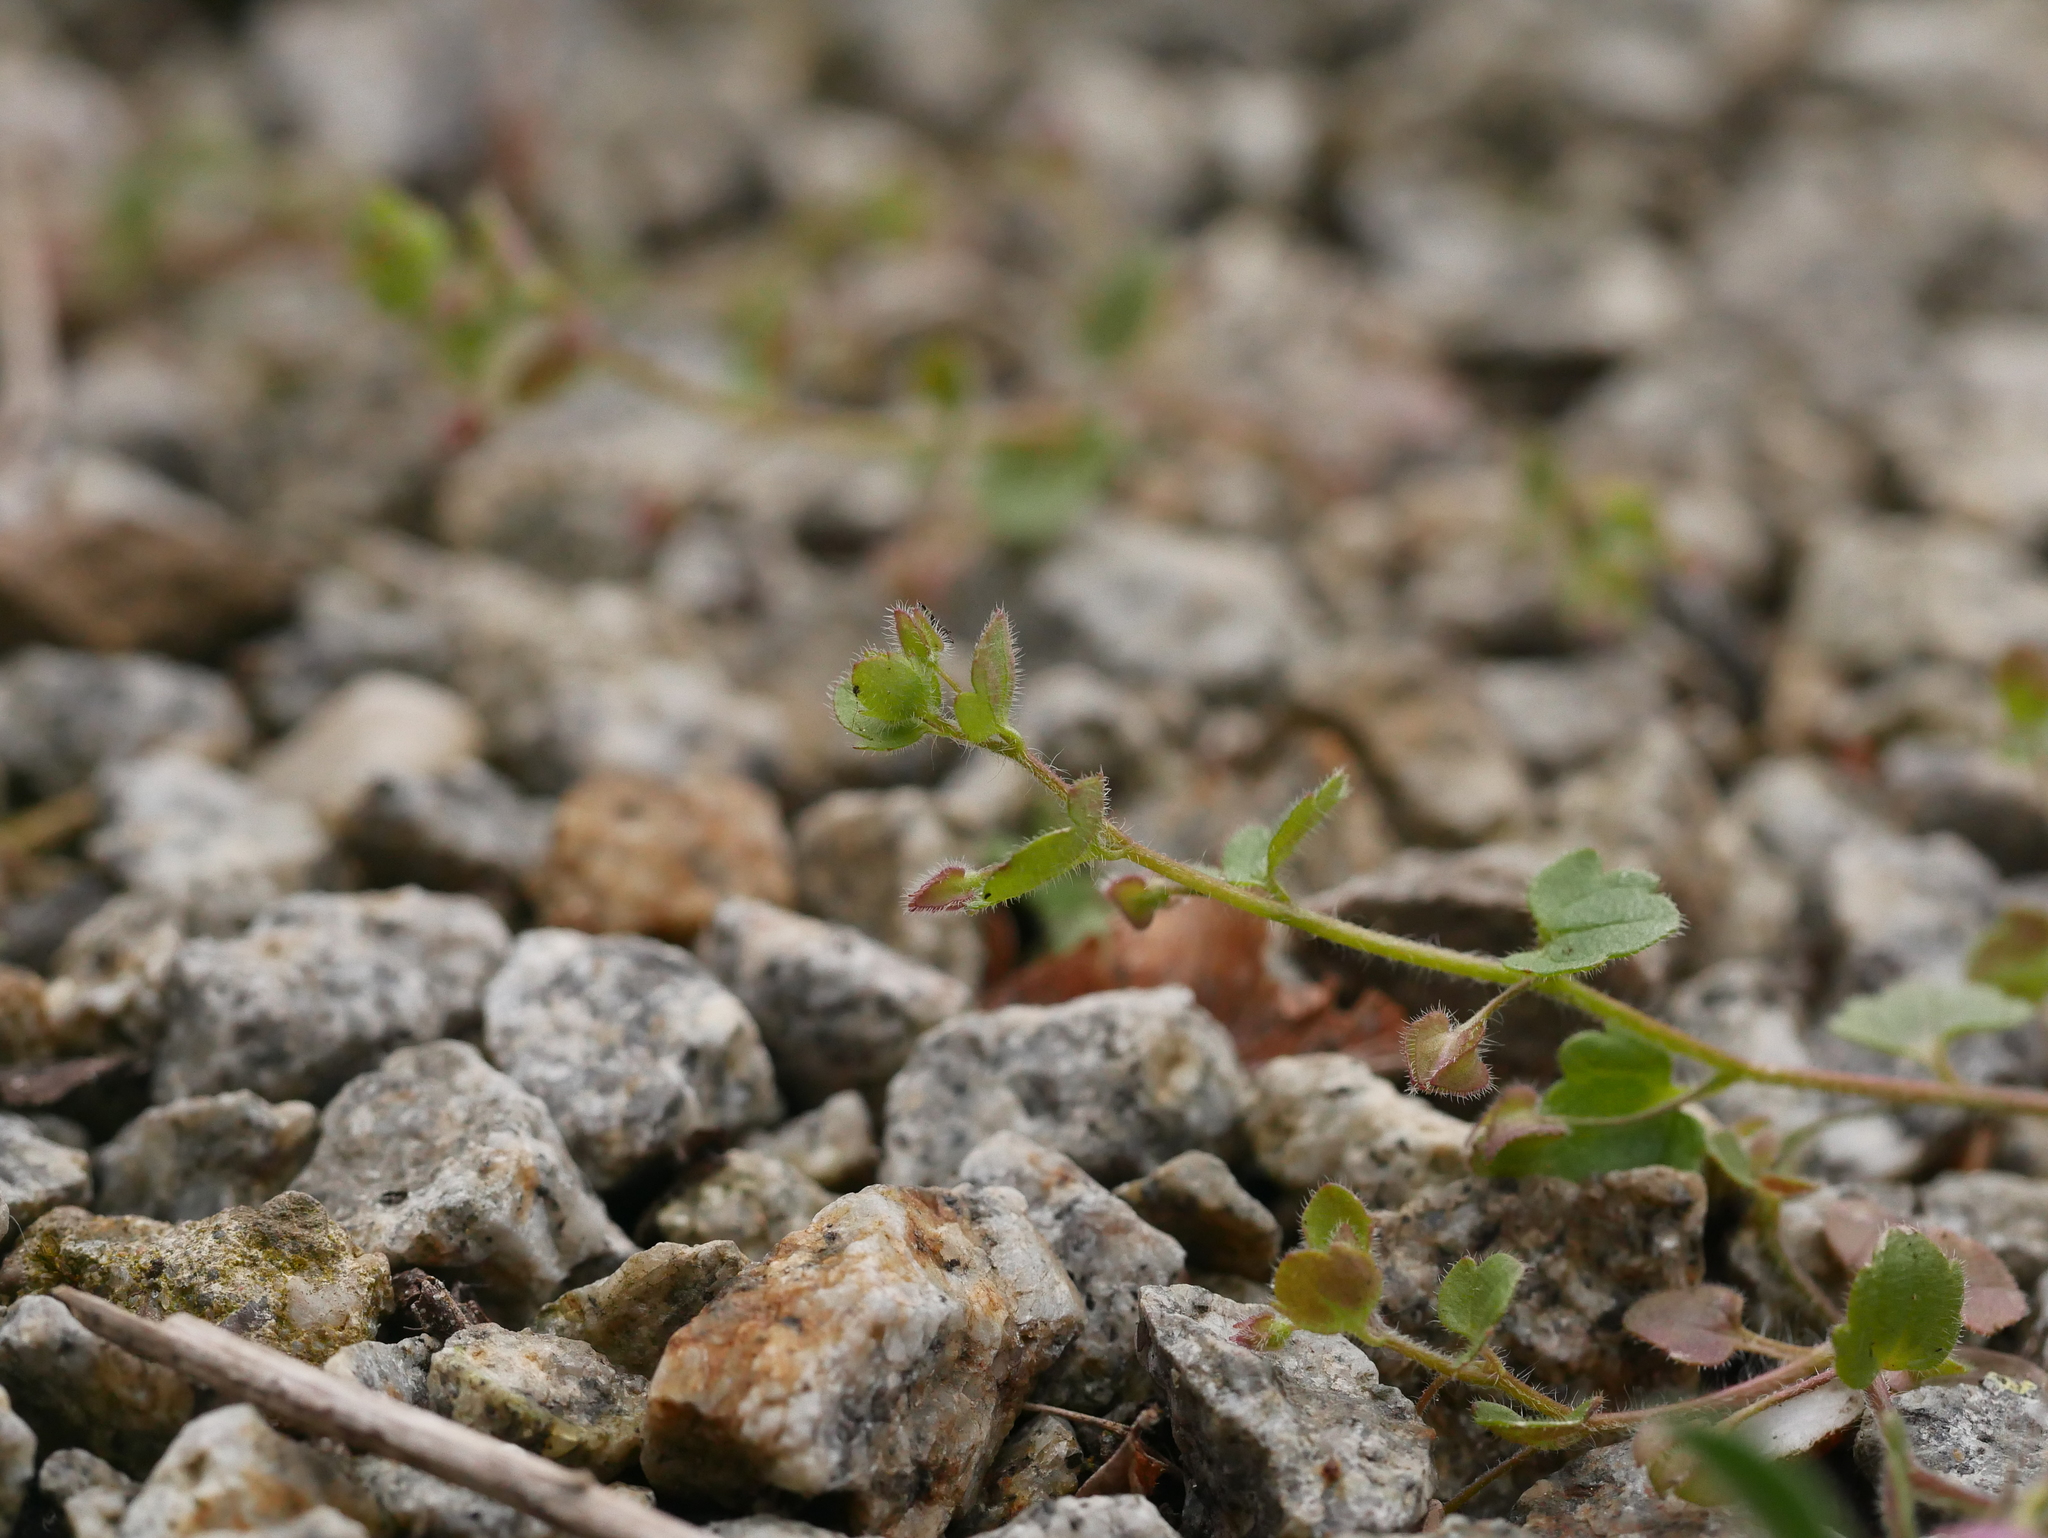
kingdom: Plantae
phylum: Tracheophyta
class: Magnoliopsida
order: Lamiales
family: Plantaginaceae
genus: Veronica
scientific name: Veronica sublobata
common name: False ivy-leaved speedwell
